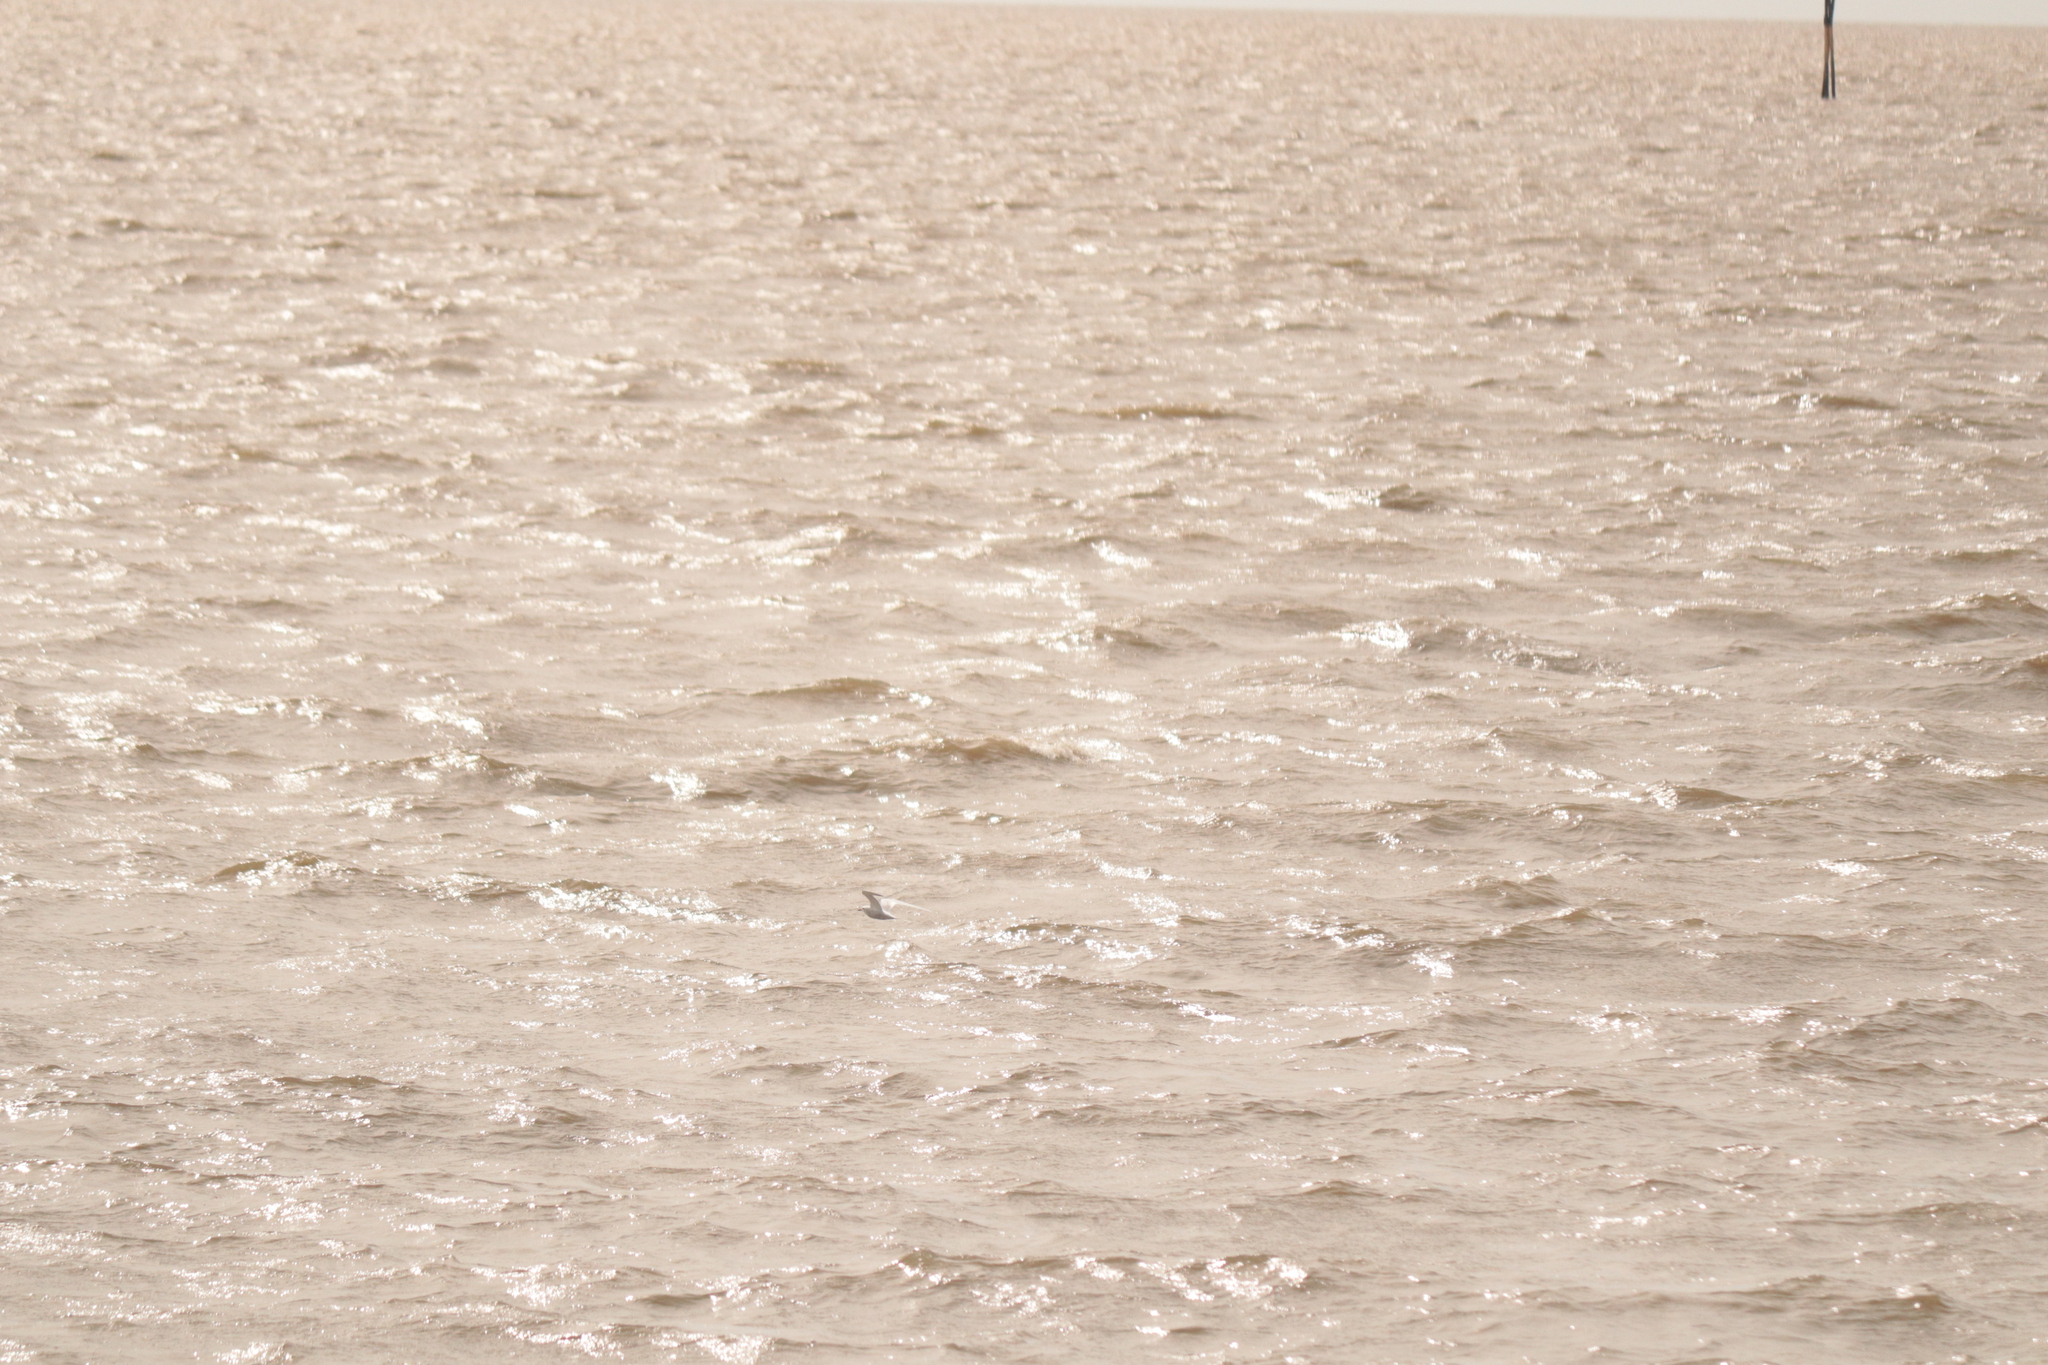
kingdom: Animalia
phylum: Chordata
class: Aves
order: Charadriiformes
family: Laridae
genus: Sterna
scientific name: Sterna trudeaui
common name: Snowy-crowned tern
